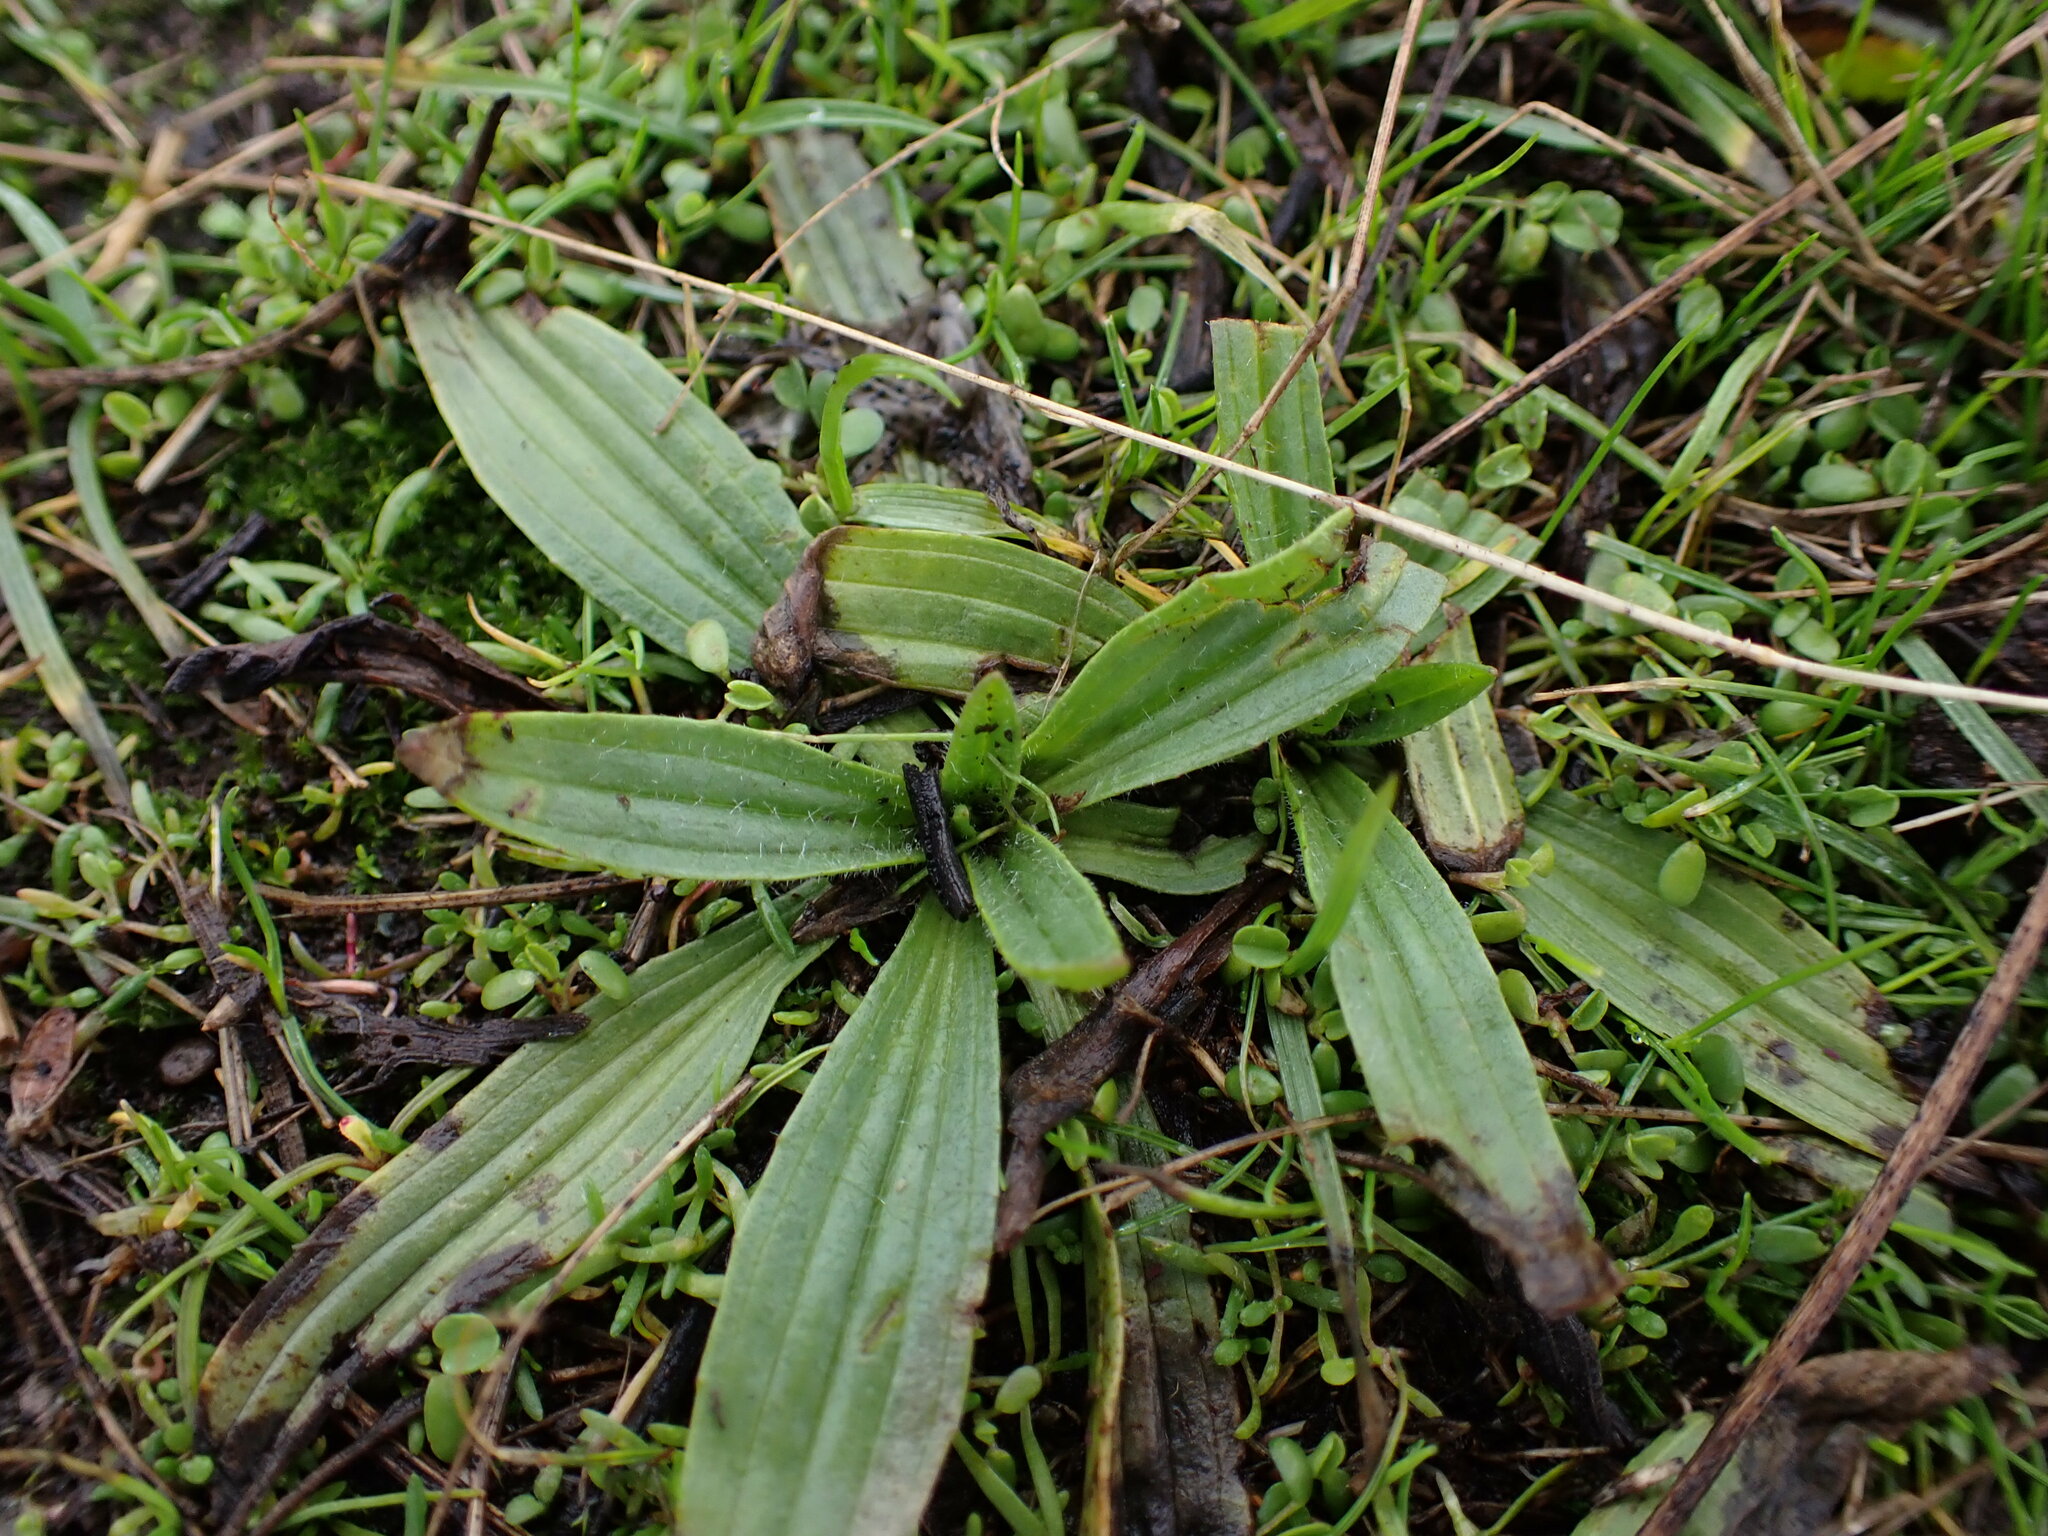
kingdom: Plantae
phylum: Tracheophyta
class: Magnoliopsida
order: Lamiales
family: Plantaginaceae
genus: Plantago
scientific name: Plantago lanceolata
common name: Ribwort plantain
